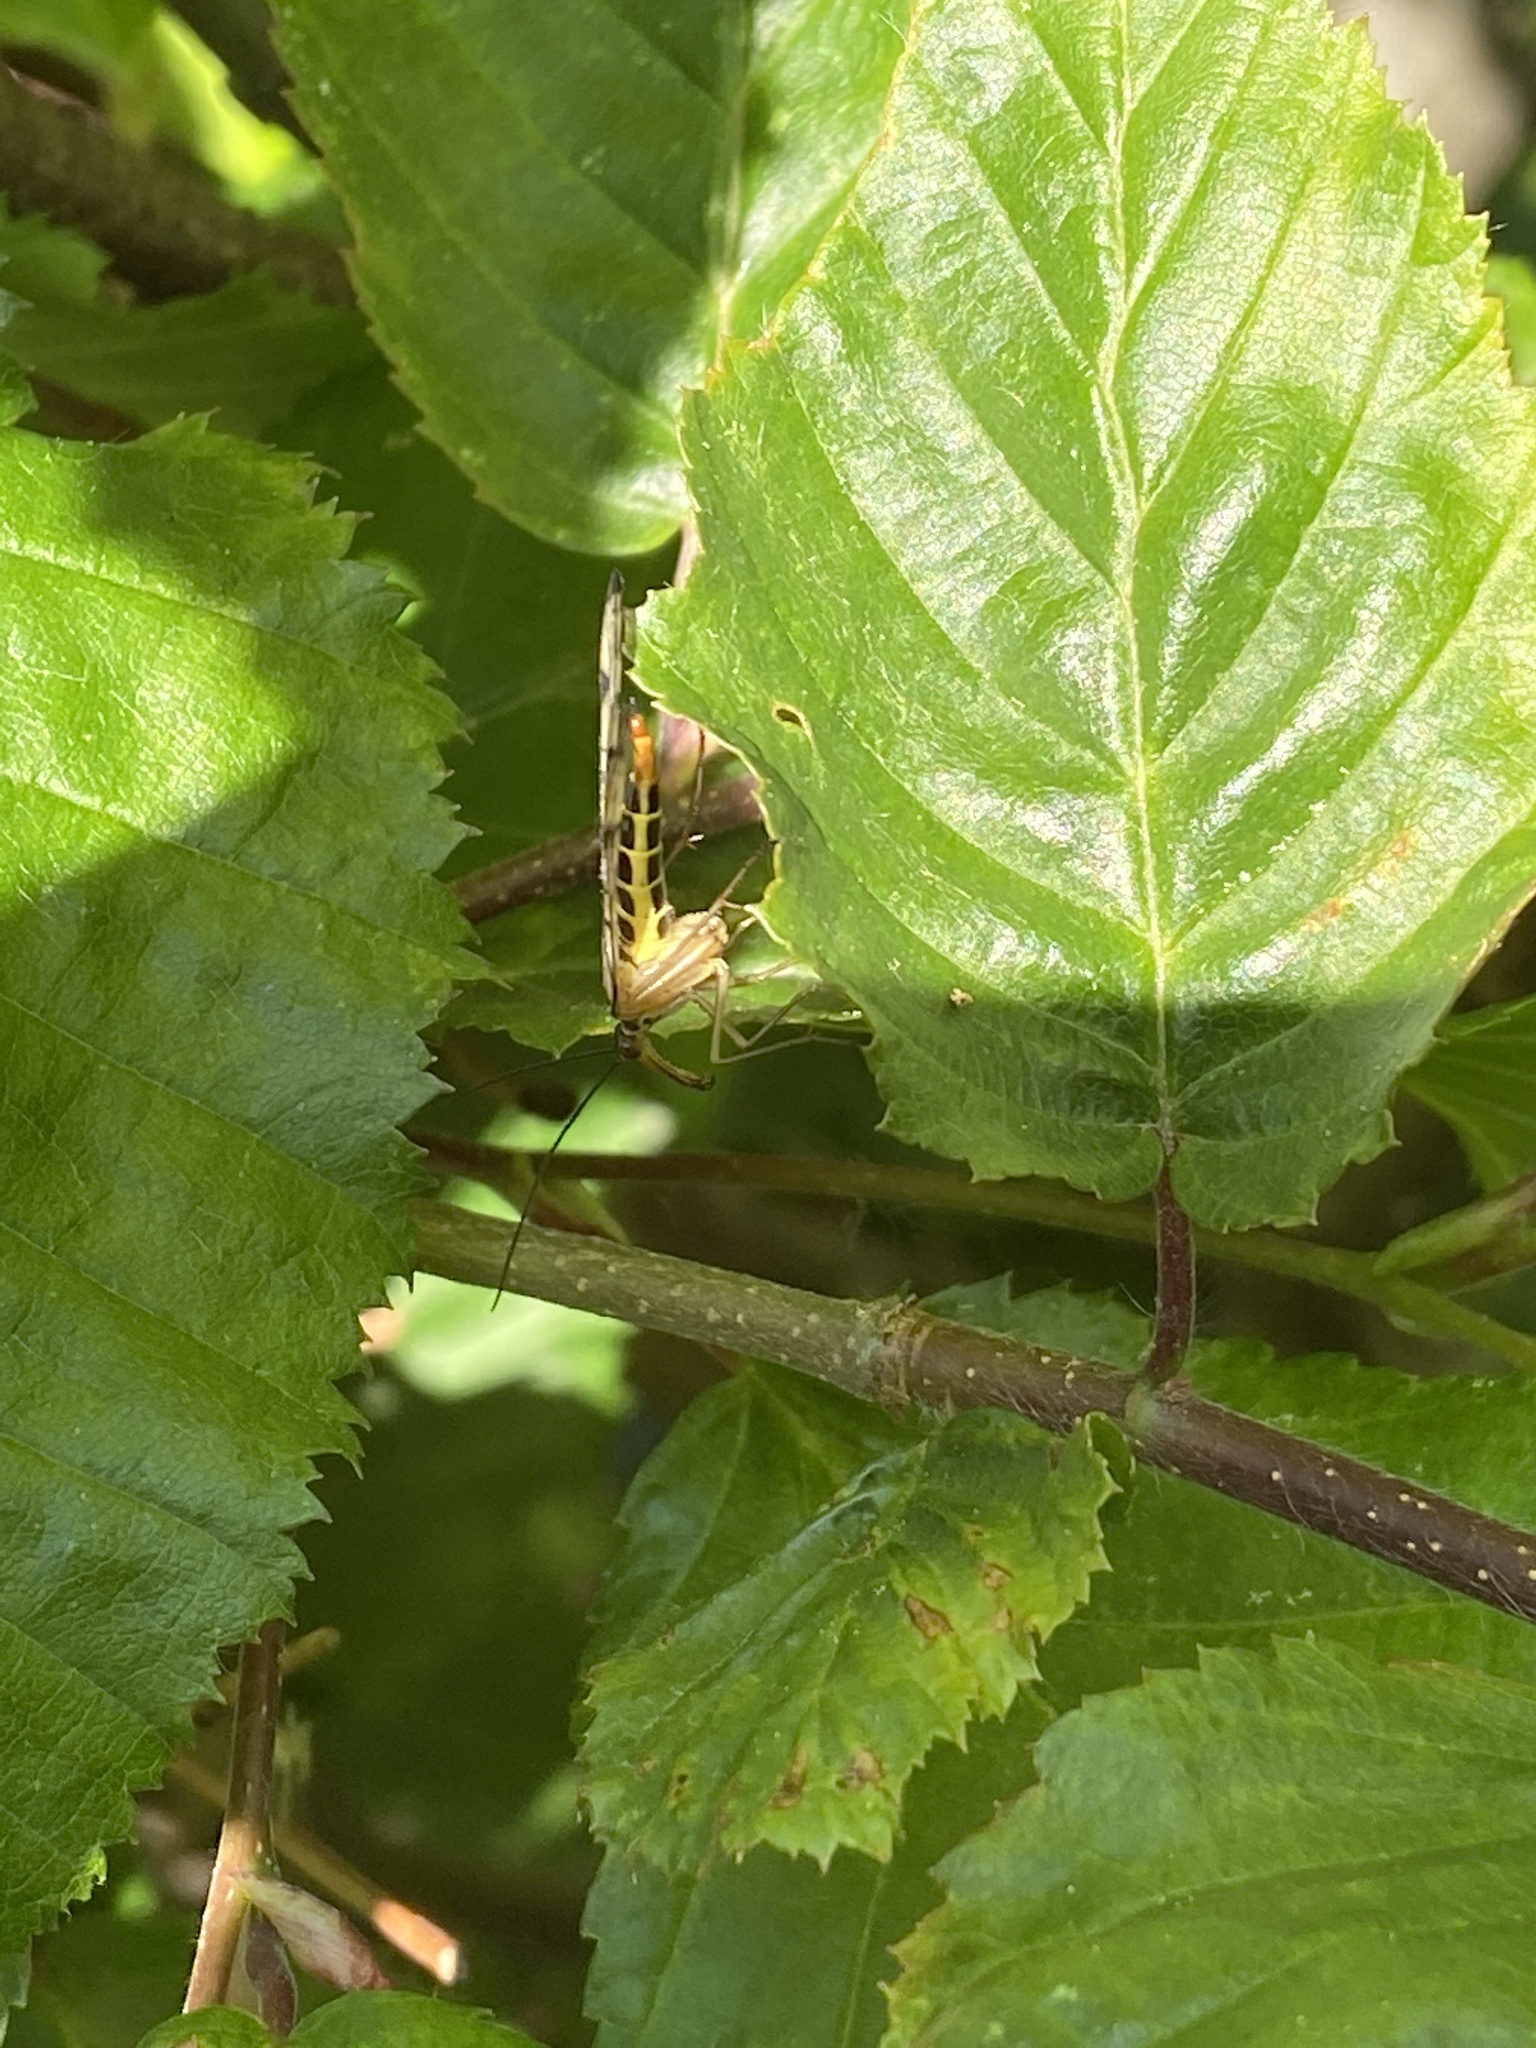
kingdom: Animalia
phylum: Arthropoda
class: Insecta
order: Mecoptera
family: Panorpidae
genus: Panorpa
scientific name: Panorpa germanica
